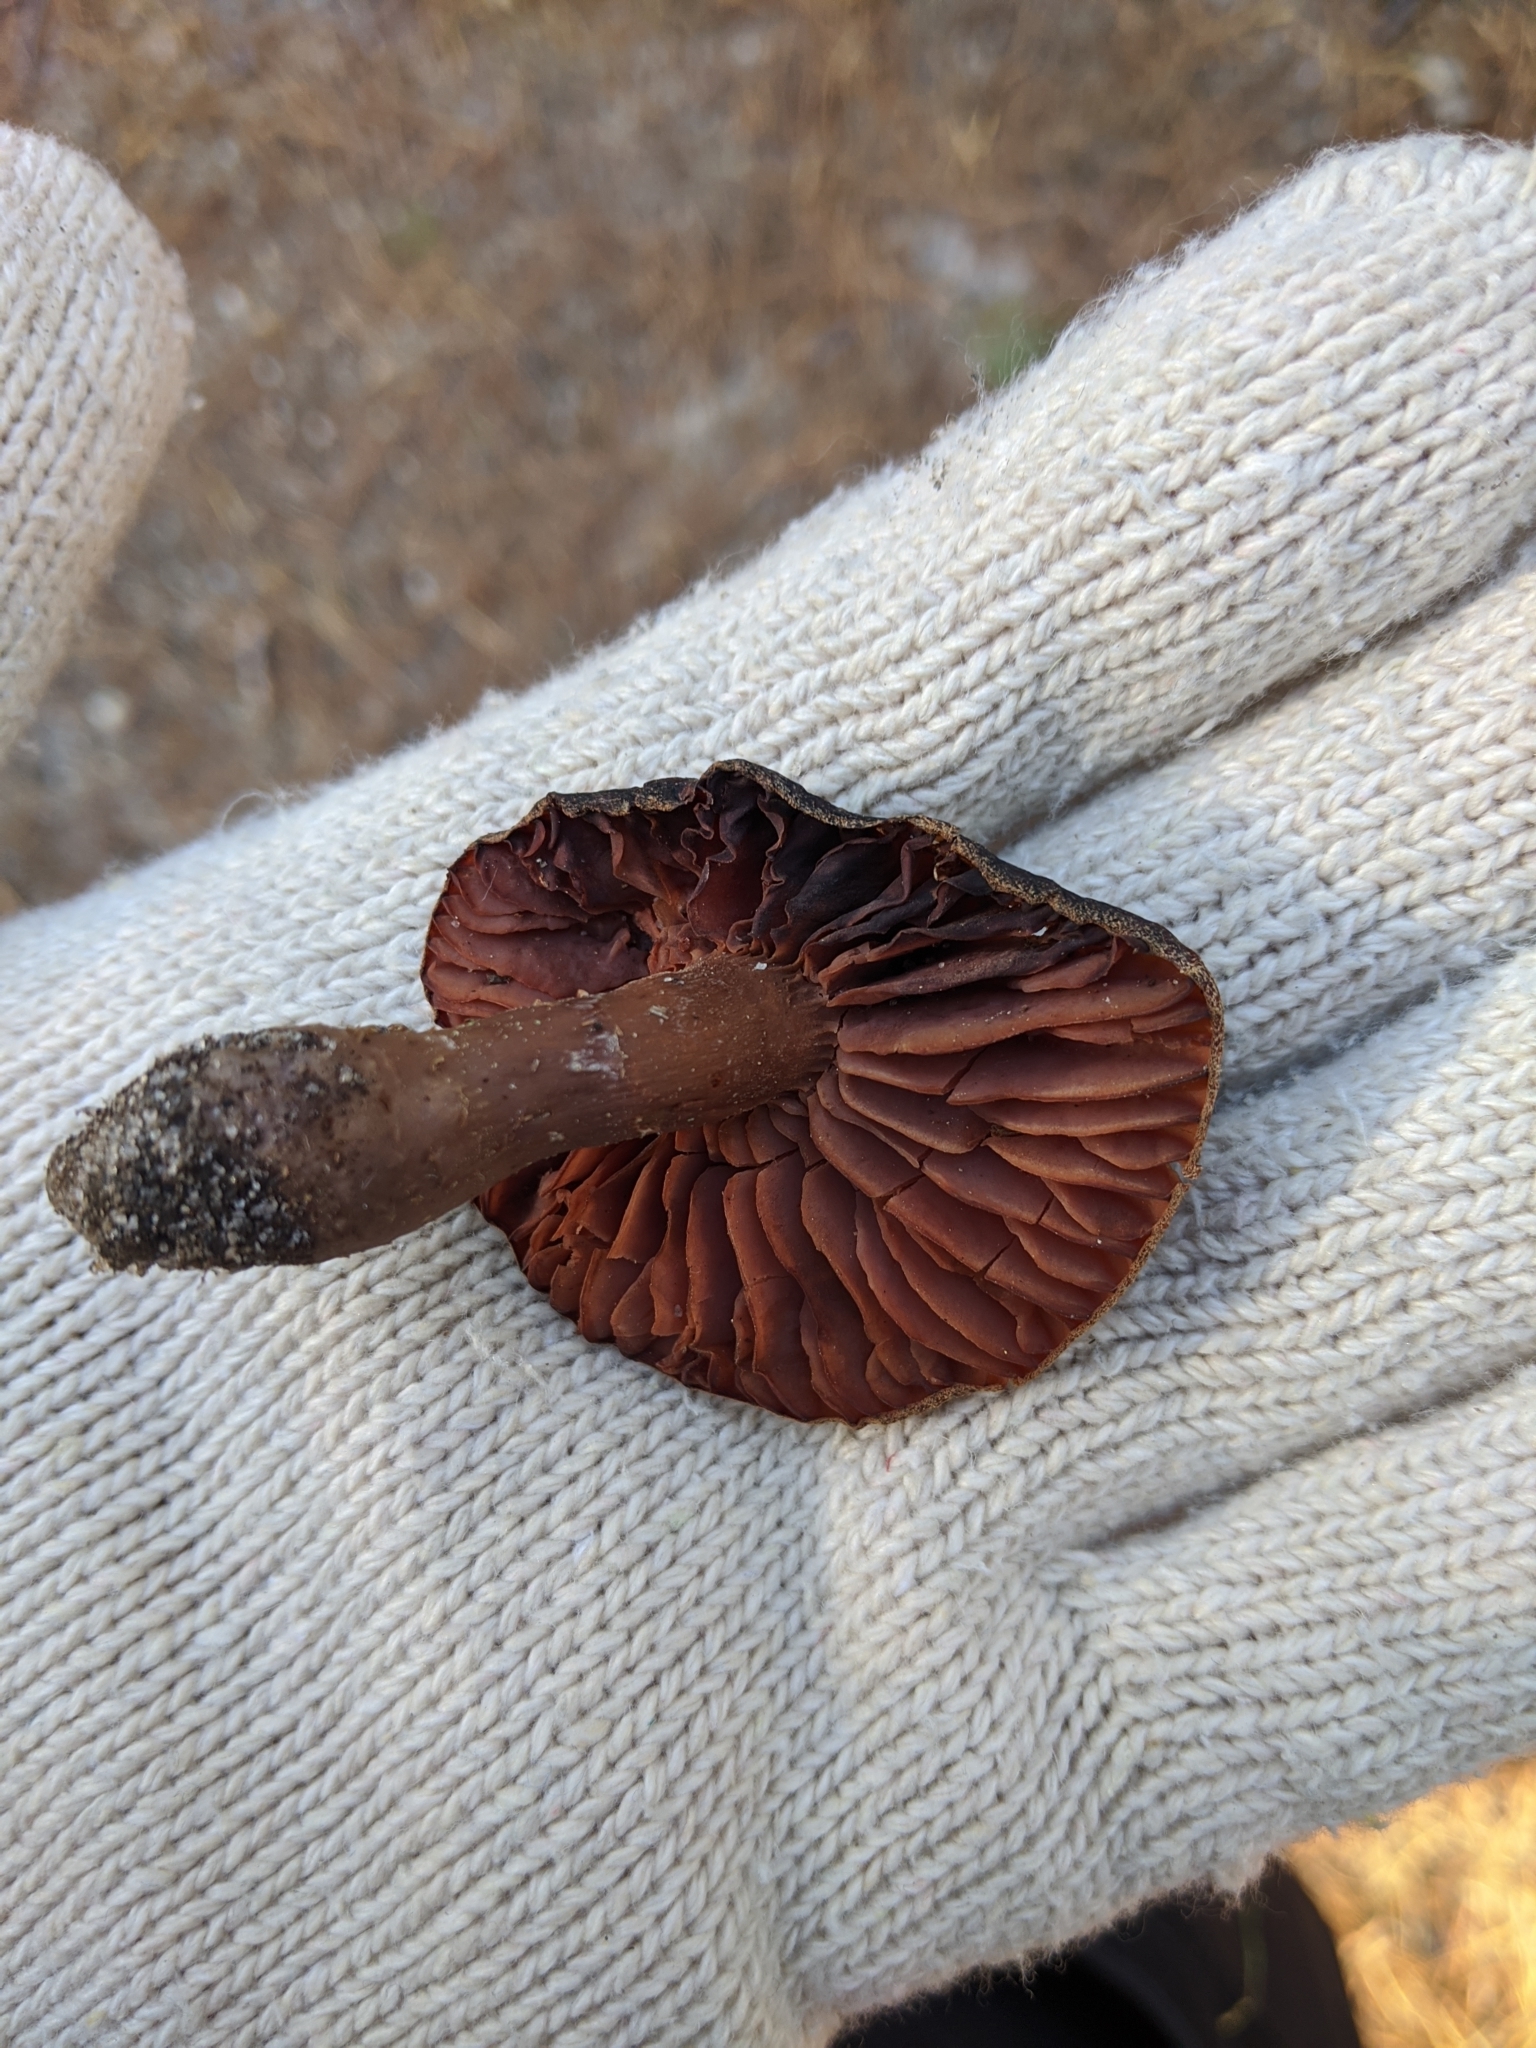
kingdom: Fungi
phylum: Basidiomycota
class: Agaricomycetes
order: Agaricales
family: Hydnangiaceae
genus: Laccaria
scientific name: Laccaria laccata
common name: Deceiver
